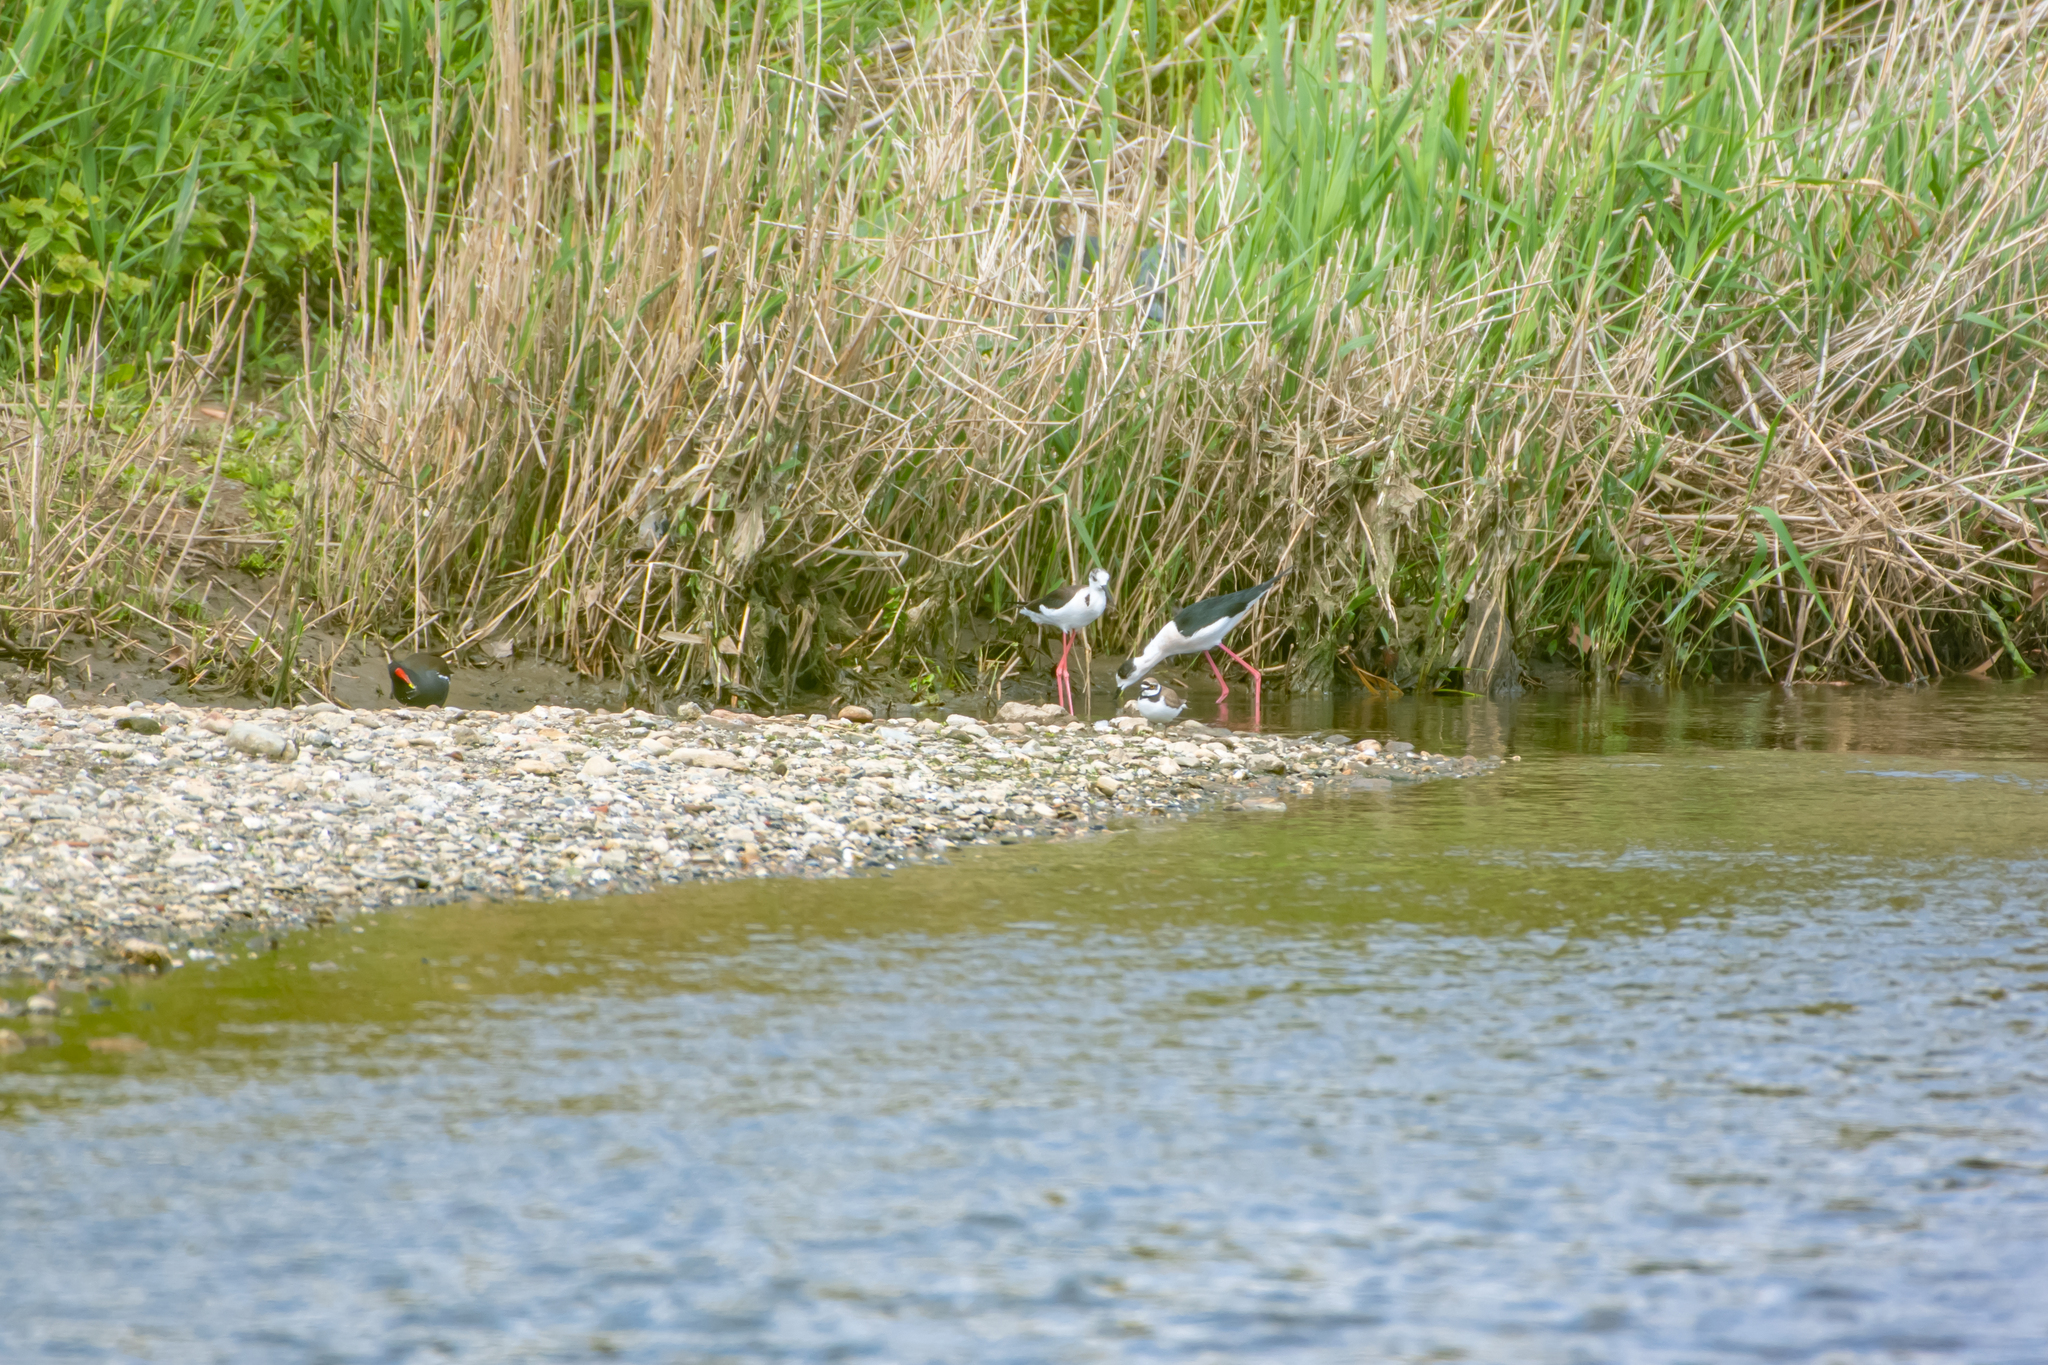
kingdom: Animalia
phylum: Chordata
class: Aves
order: Charadriiformes
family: Recurvirostridae
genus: Himantopus
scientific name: Himantopus himantopus
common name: Black-winged stilt
